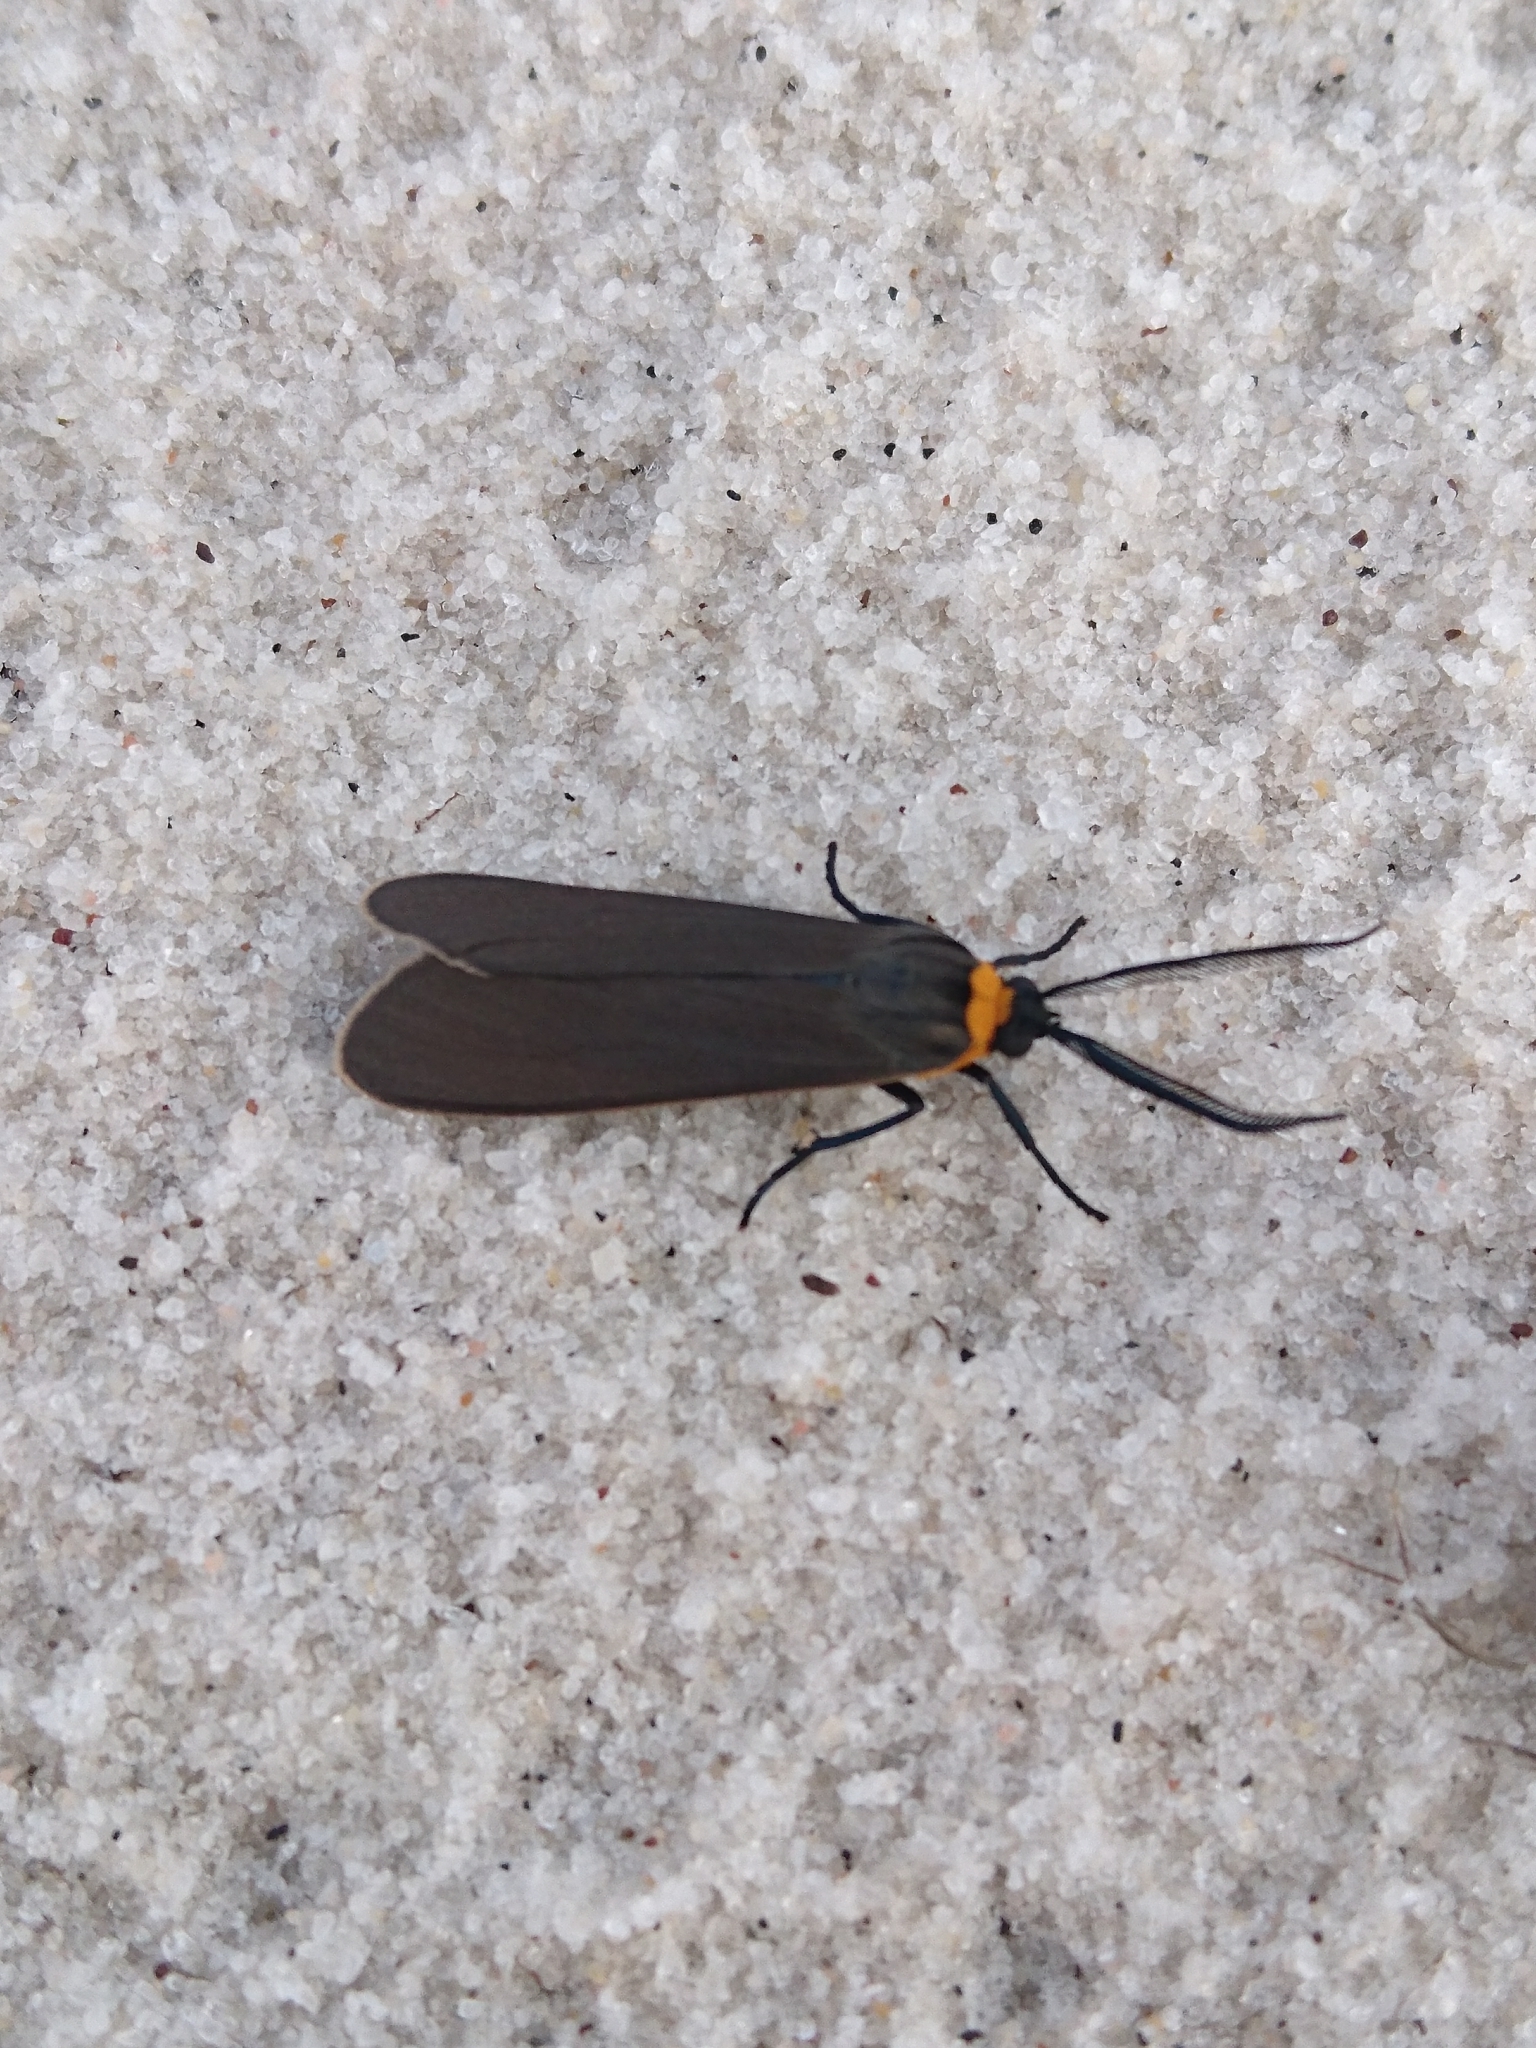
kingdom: Animalia
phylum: Arthropoda
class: Insecta
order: Lepidoptera
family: Erebidae
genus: Cisseps
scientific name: Cisseps fulvicollis
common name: Yellow-collared scape moth
